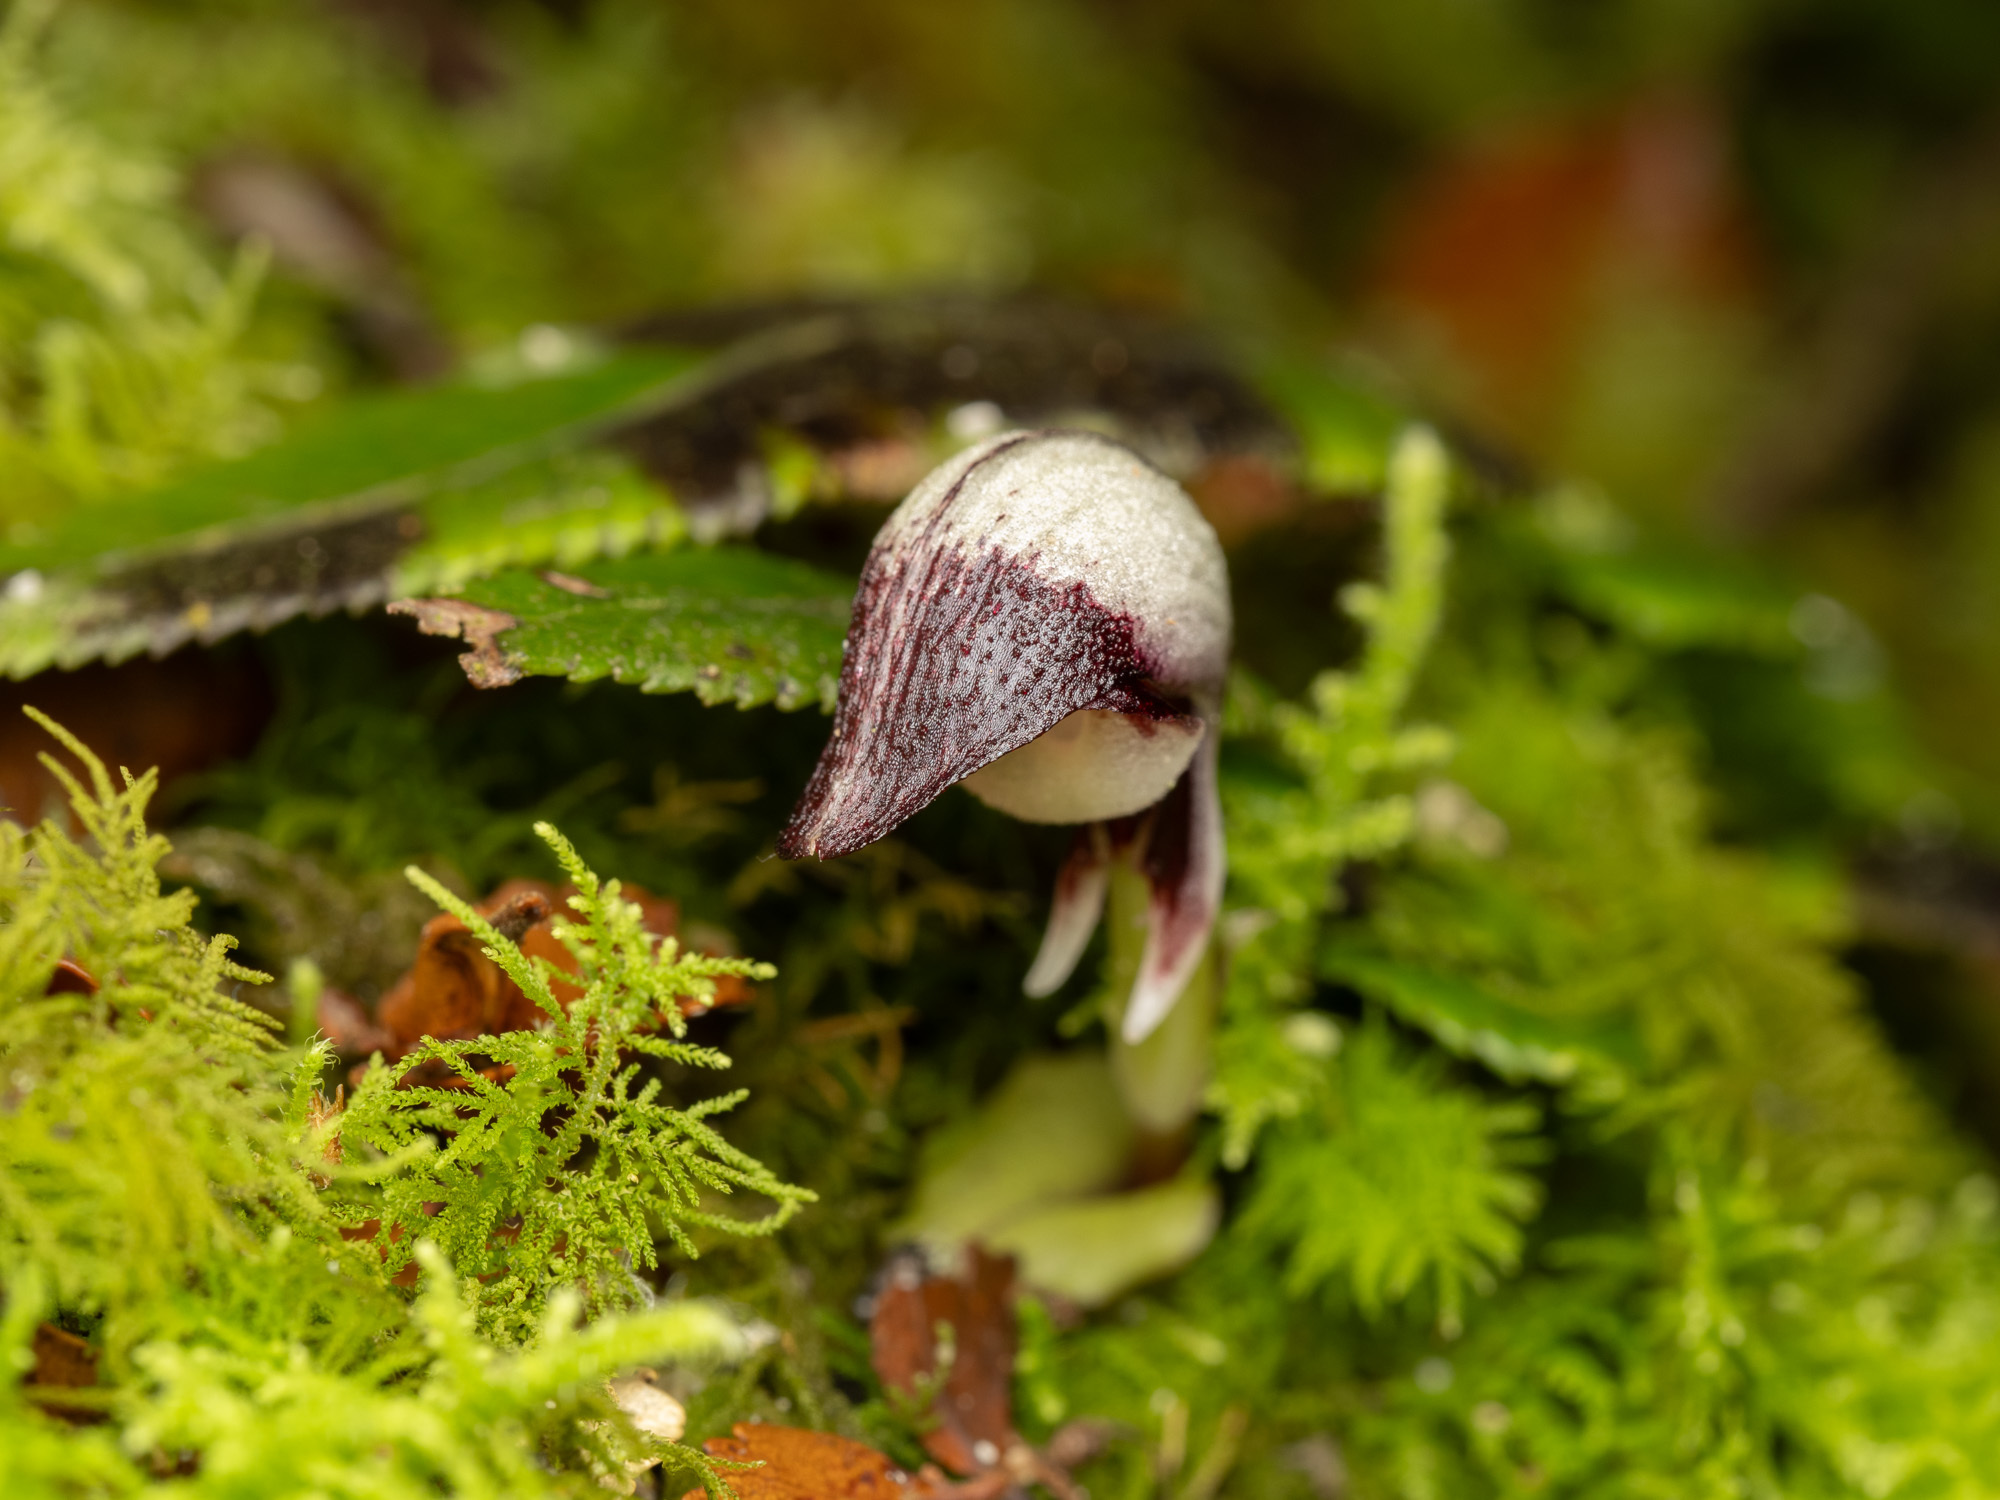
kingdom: Plantae
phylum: Tracheophyta
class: Liliopsida
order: Asparagales
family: Orchidaceae
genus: Corybas
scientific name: Corybas cheesemanii
